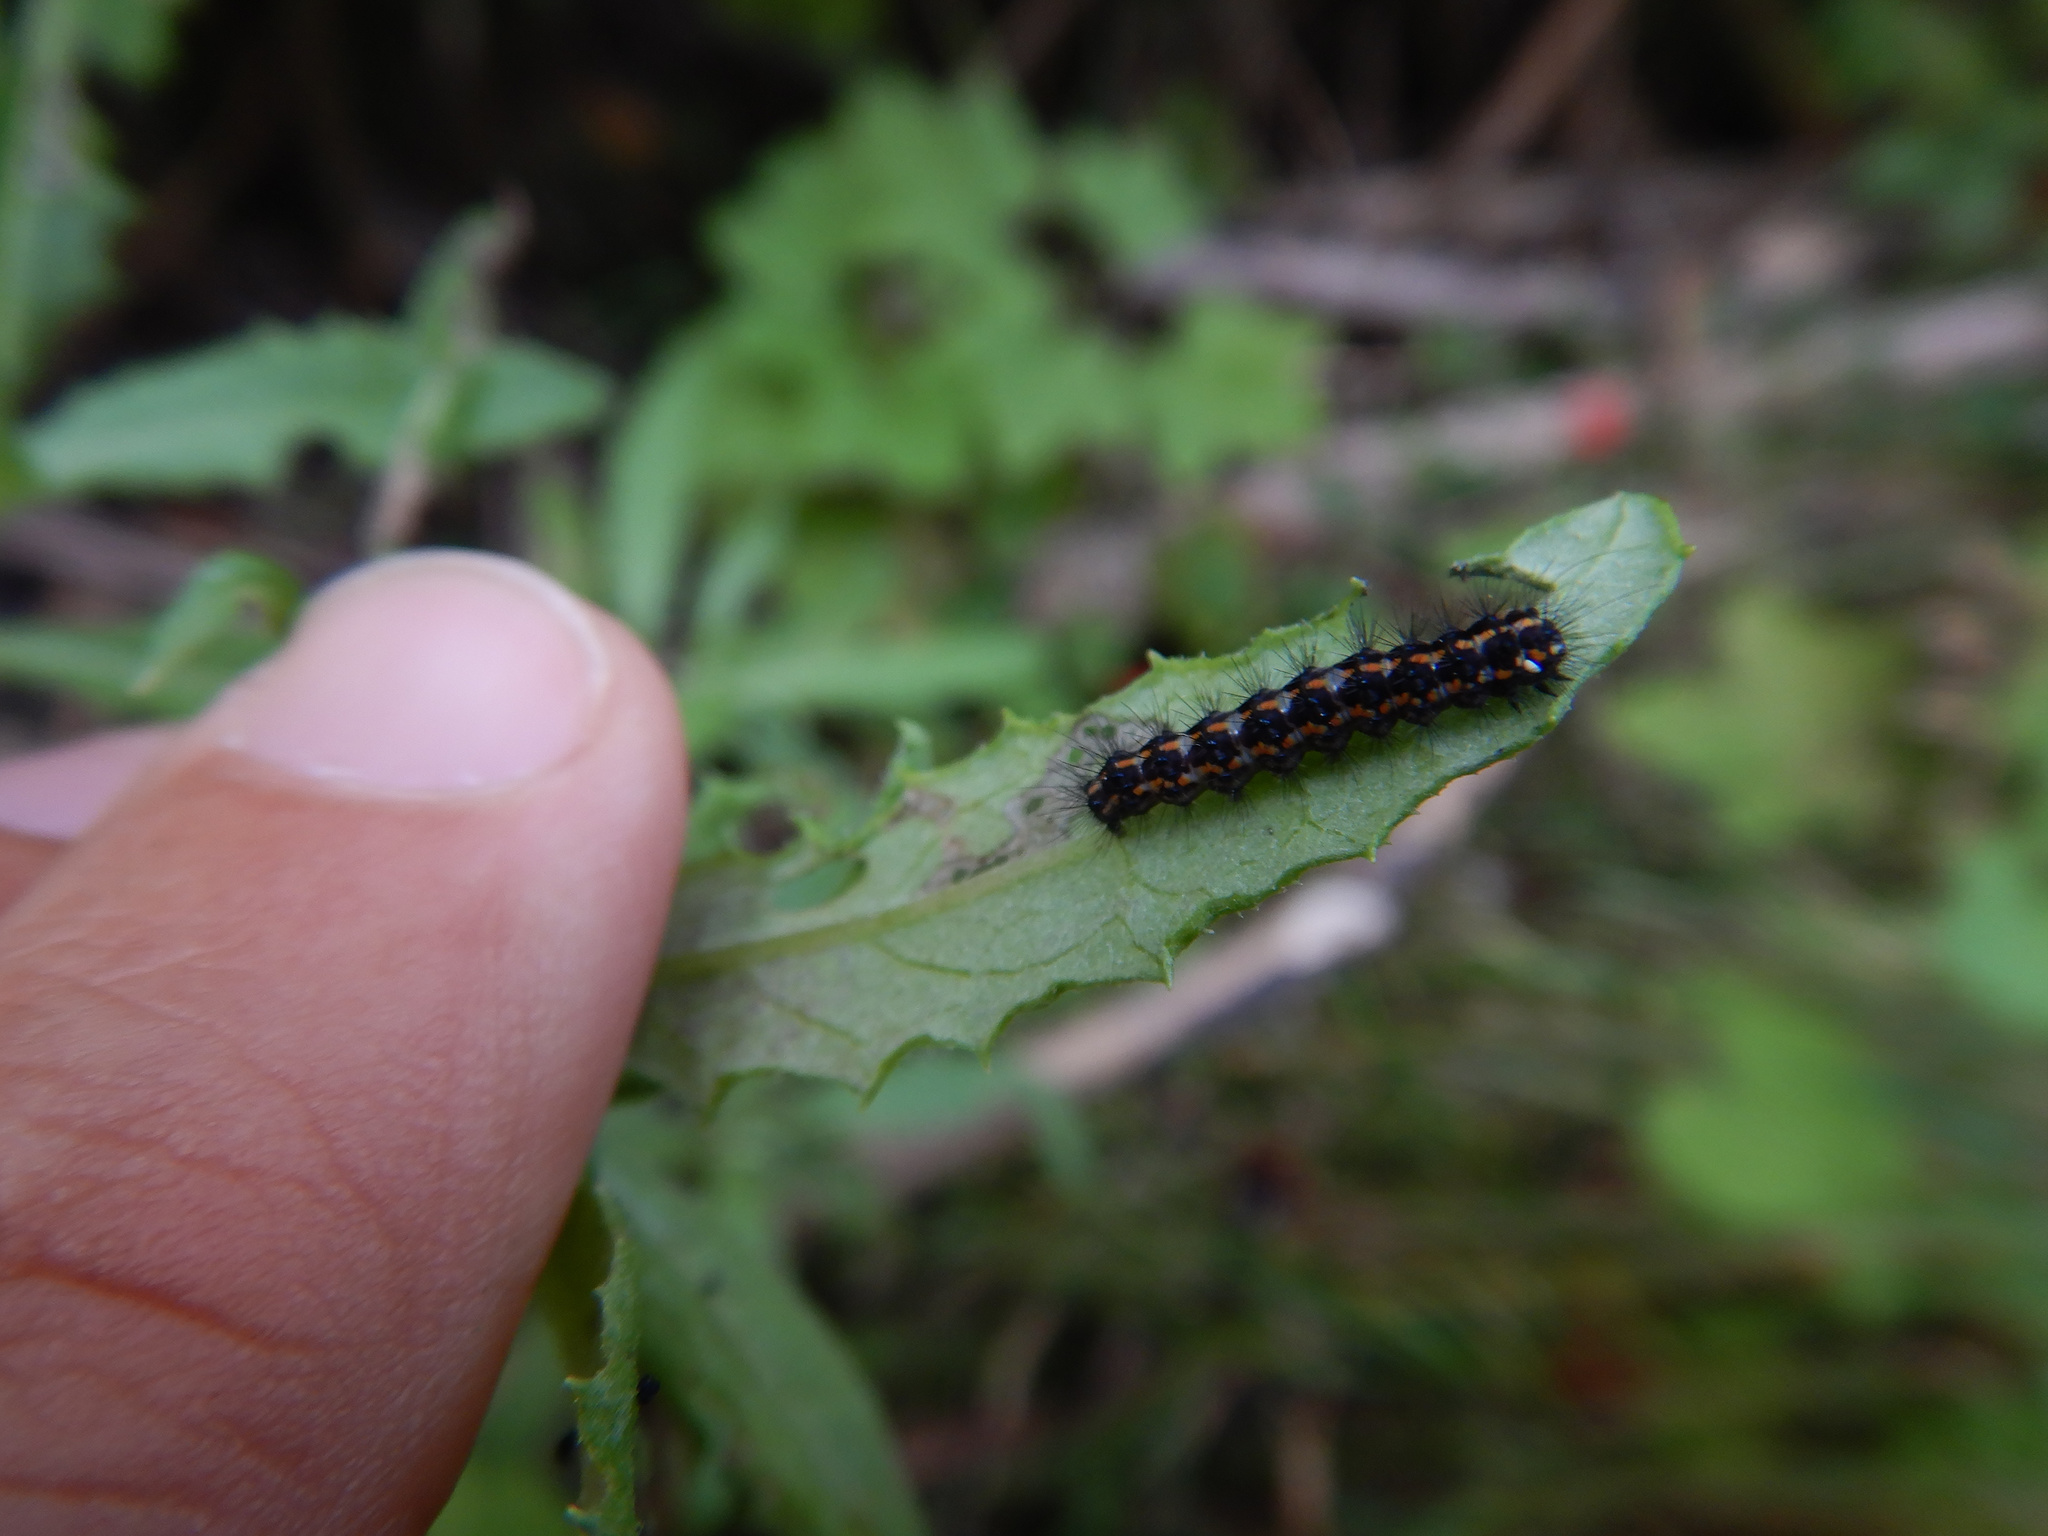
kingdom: Animalia
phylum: Arthropoda
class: Insecta
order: Lepidoptera
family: Erebidae
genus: Nyctemera
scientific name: Nyctemera annulatum
